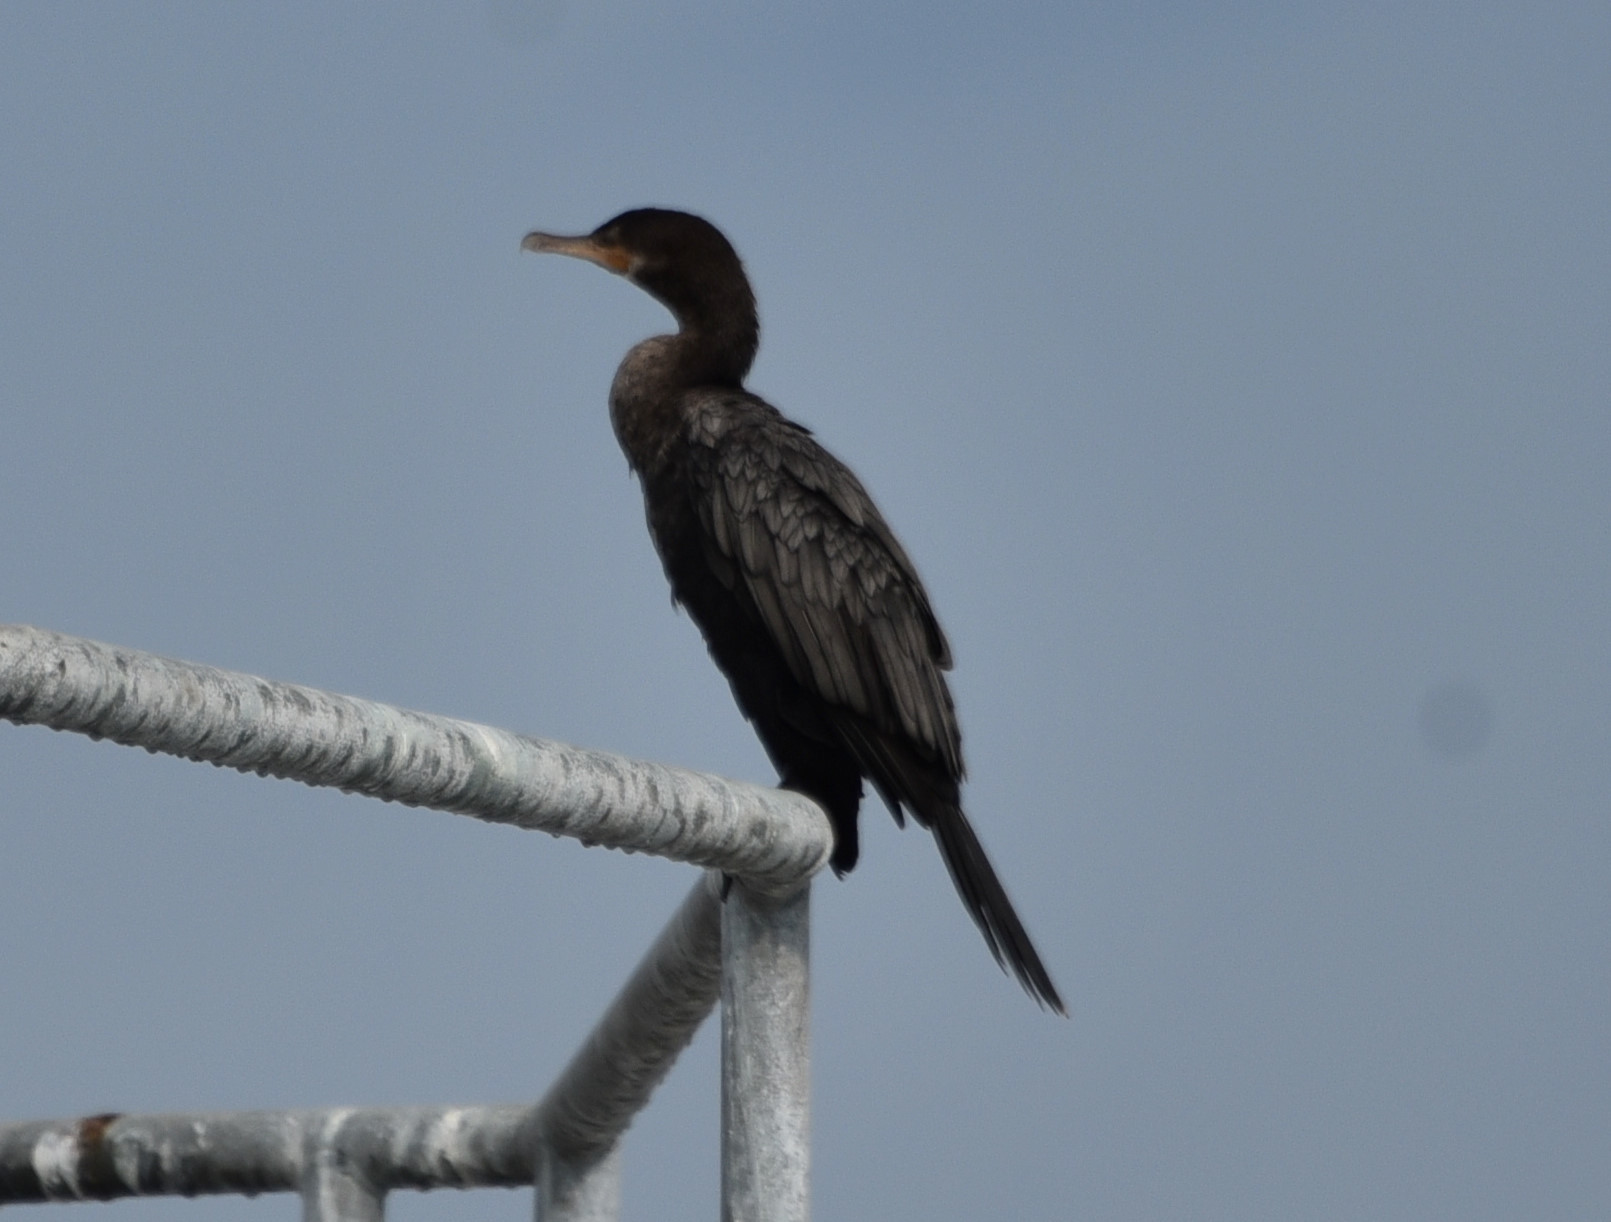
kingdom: Animalia
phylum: Chordata
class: Aves
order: Suliformes
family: Phalacrocoracidae
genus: Phalacrocorax
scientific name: Phalacrocorax brasilianus
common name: Neotropic cormorant
